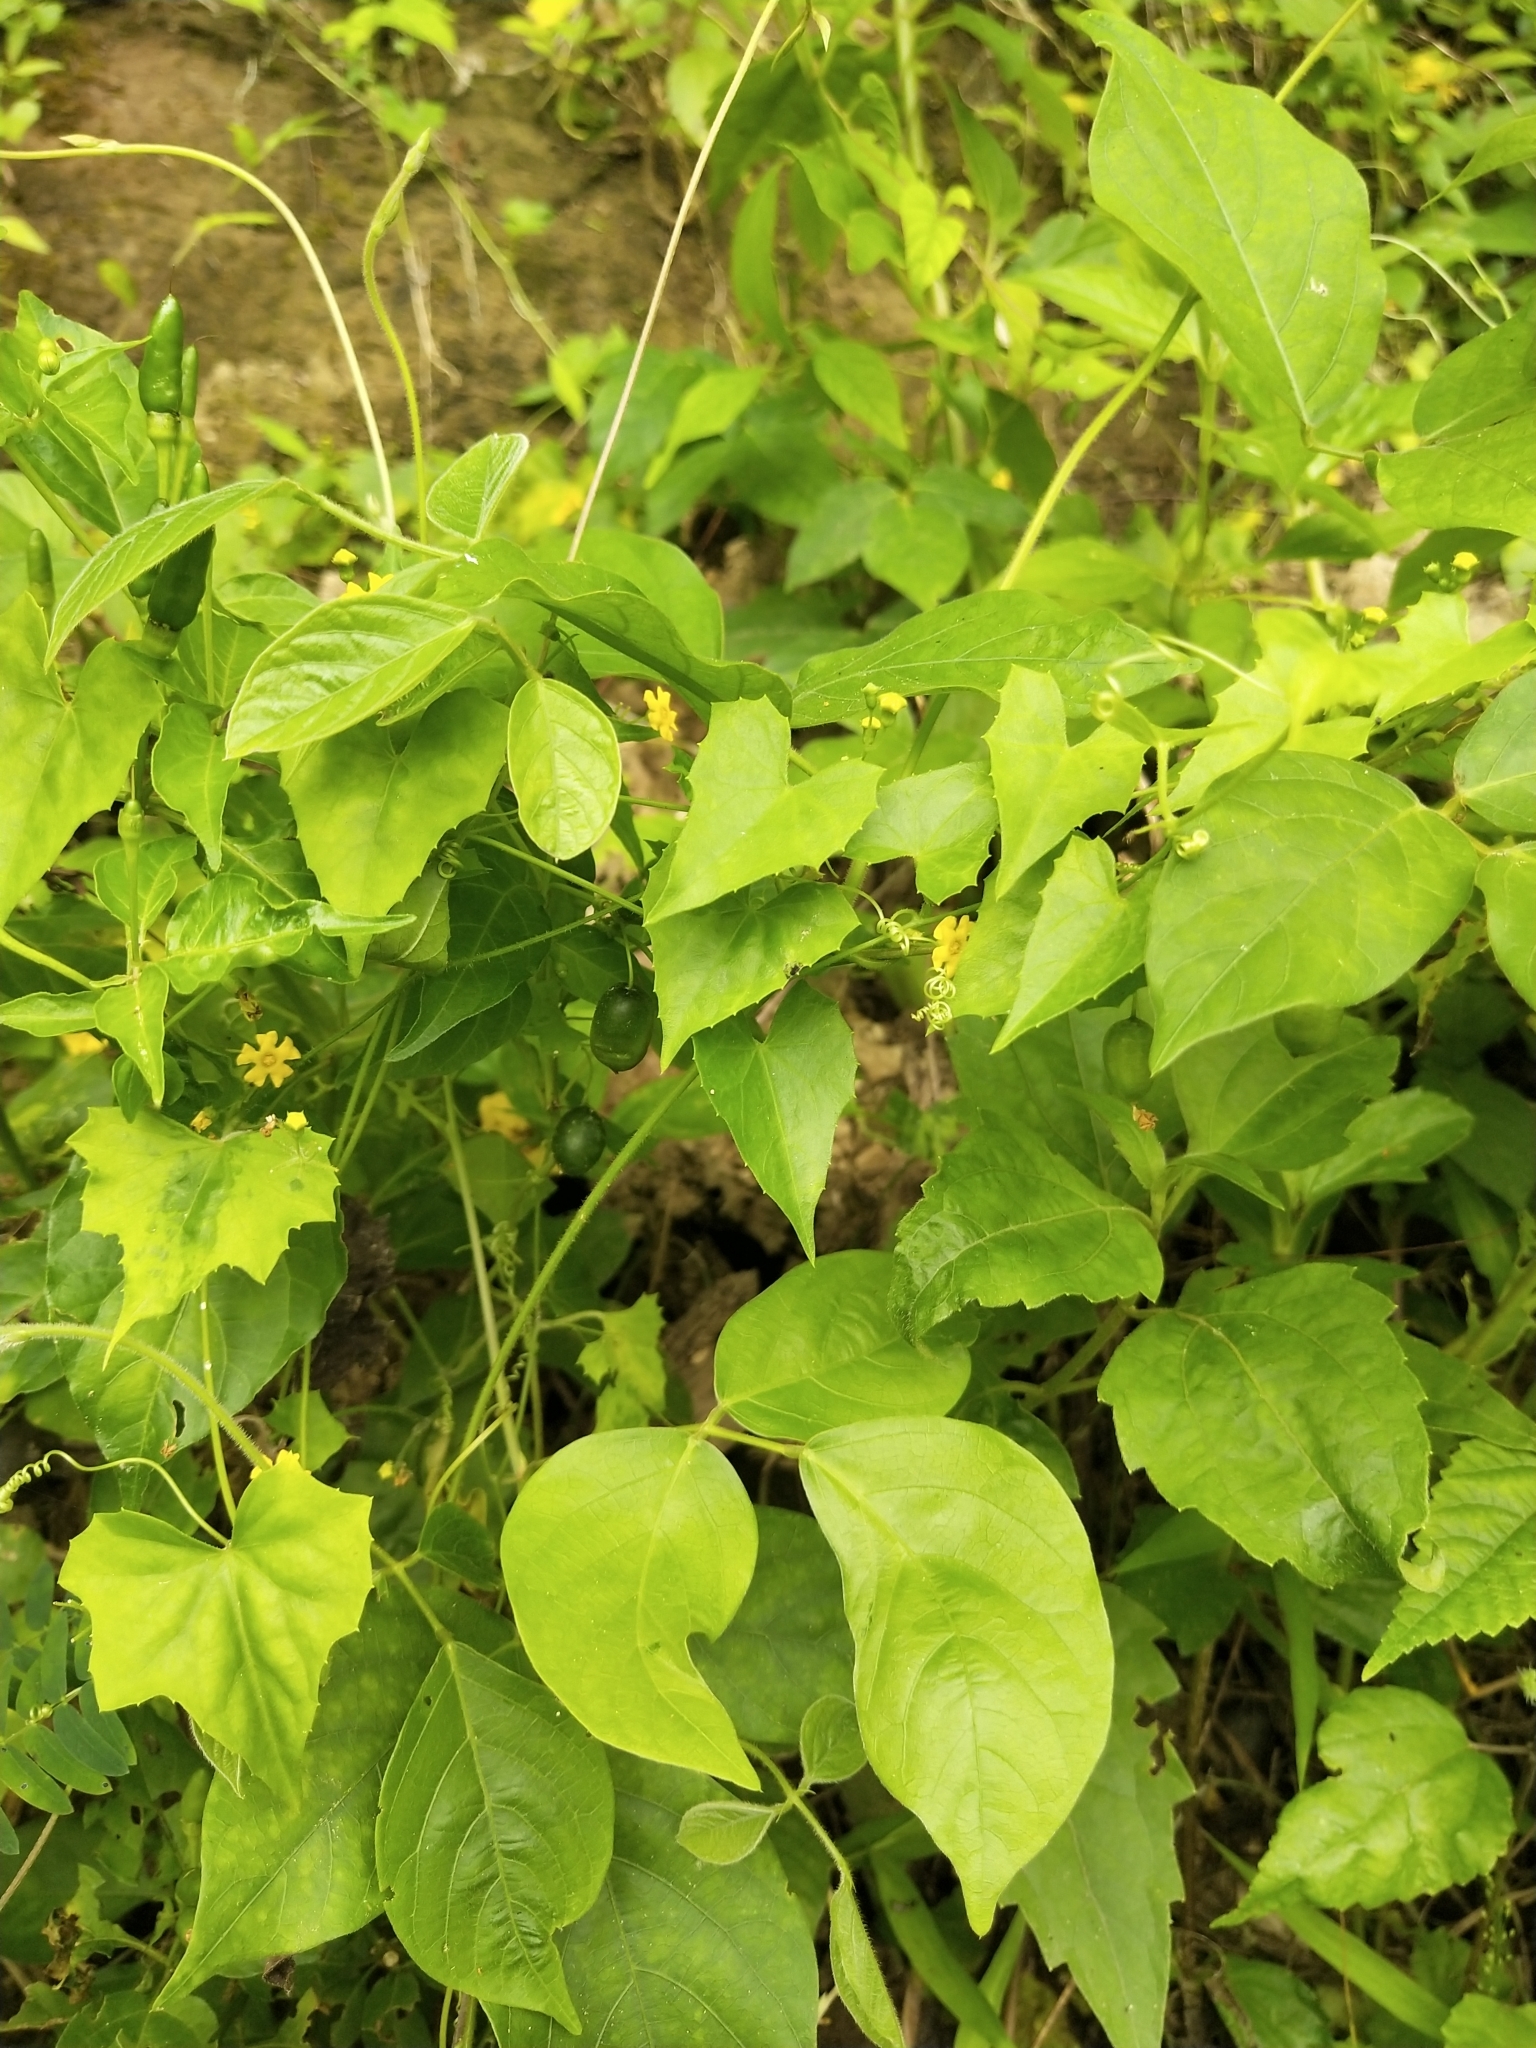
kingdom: Plantae
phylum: Tracheophyta
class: Magnoliopsida
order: Cucurbitales
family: Cucurbitaceae
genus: Melothria
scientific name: Melothria pendula
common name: Creeping-cucumber
